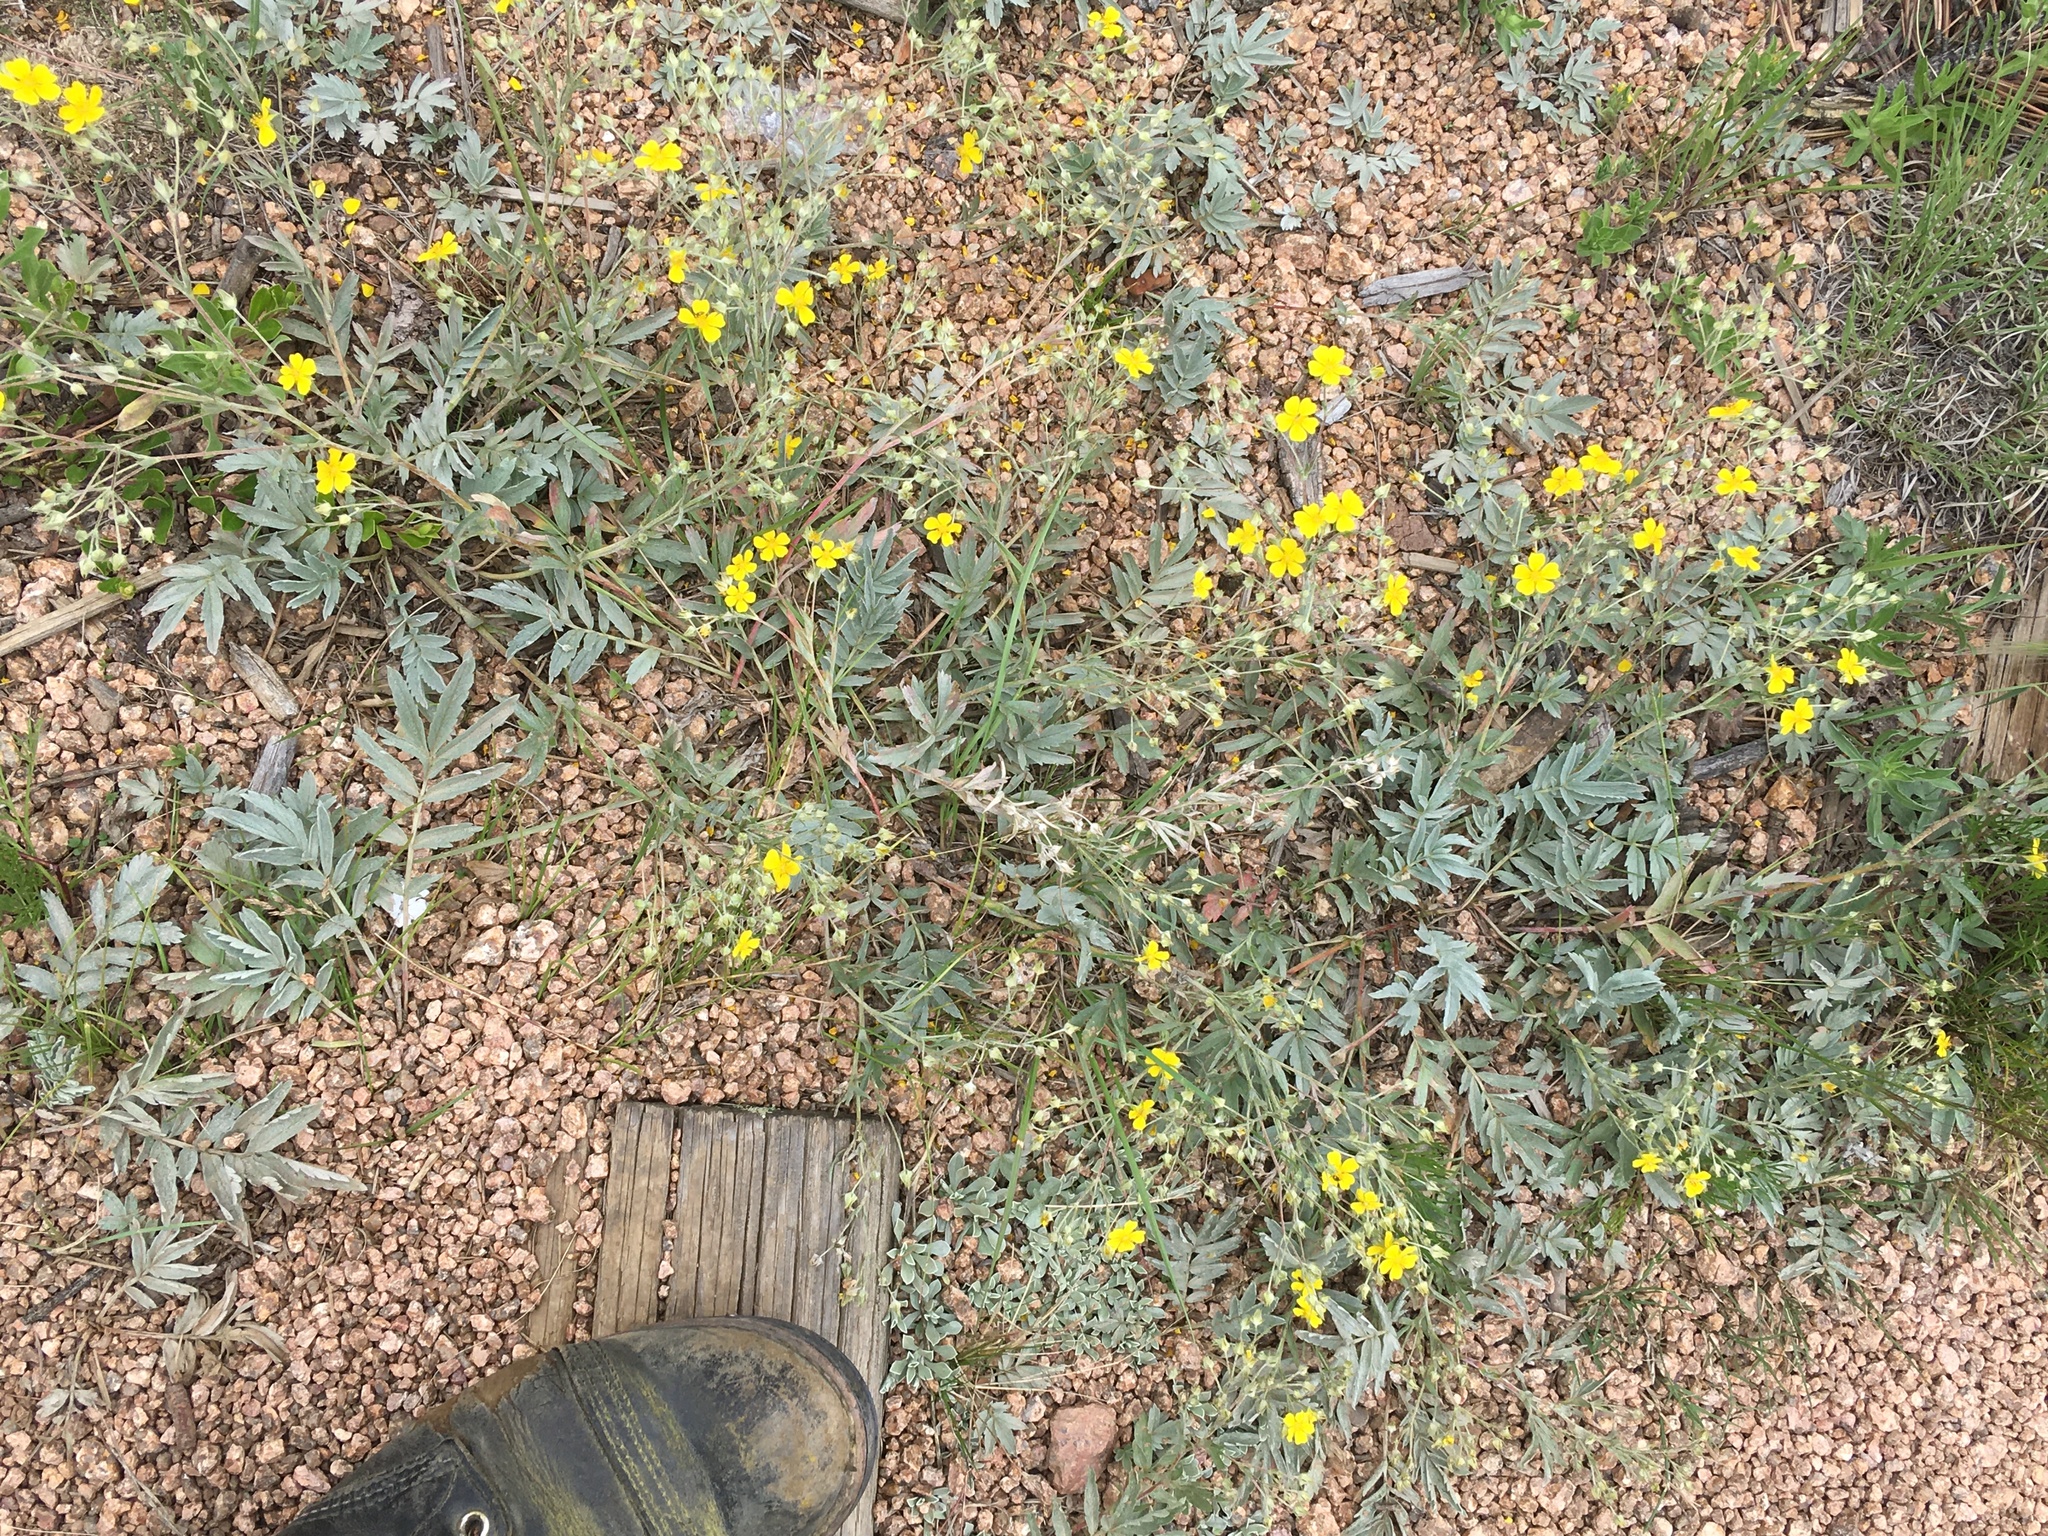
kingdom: Plantae
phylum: Tracheophyta
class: Magnoliopsida
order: Rosales
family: Rosaceae
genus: Potentilla
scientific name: Potentilla hippiana
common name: Woolly cinquefoil
